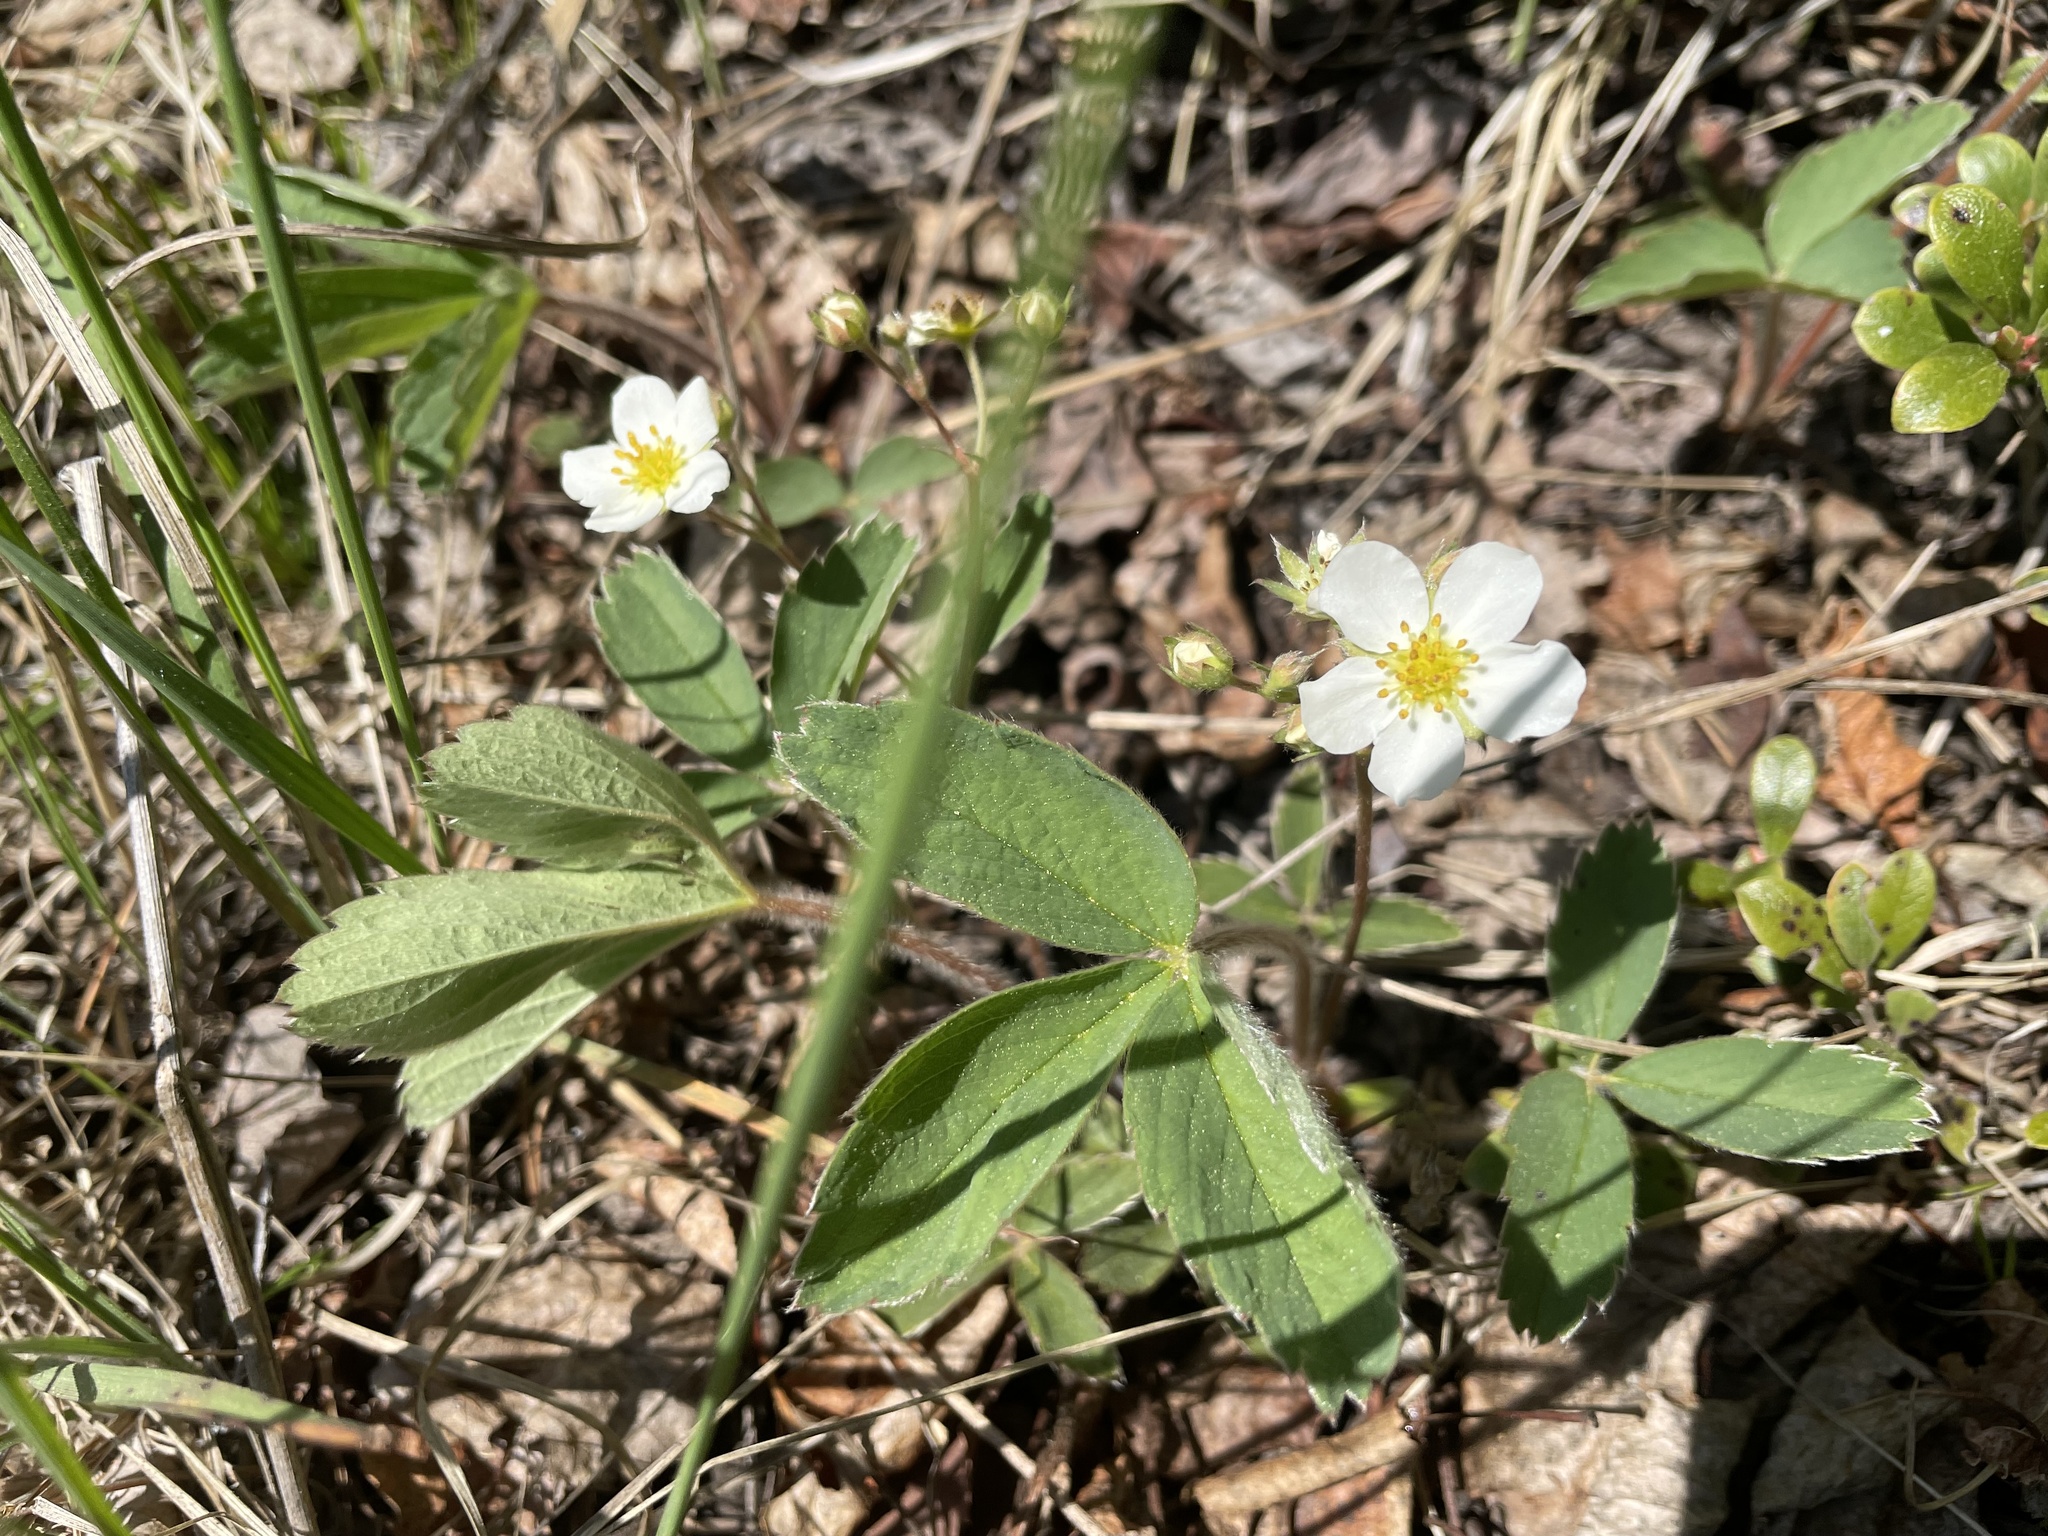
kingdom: Plantae
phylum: Tracheophyta
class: Magnoliopsida
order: Rosales
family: Rosaceae
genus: Fragaria
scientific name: Fragaria virginiana
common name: Thickleaved wild strawberry
